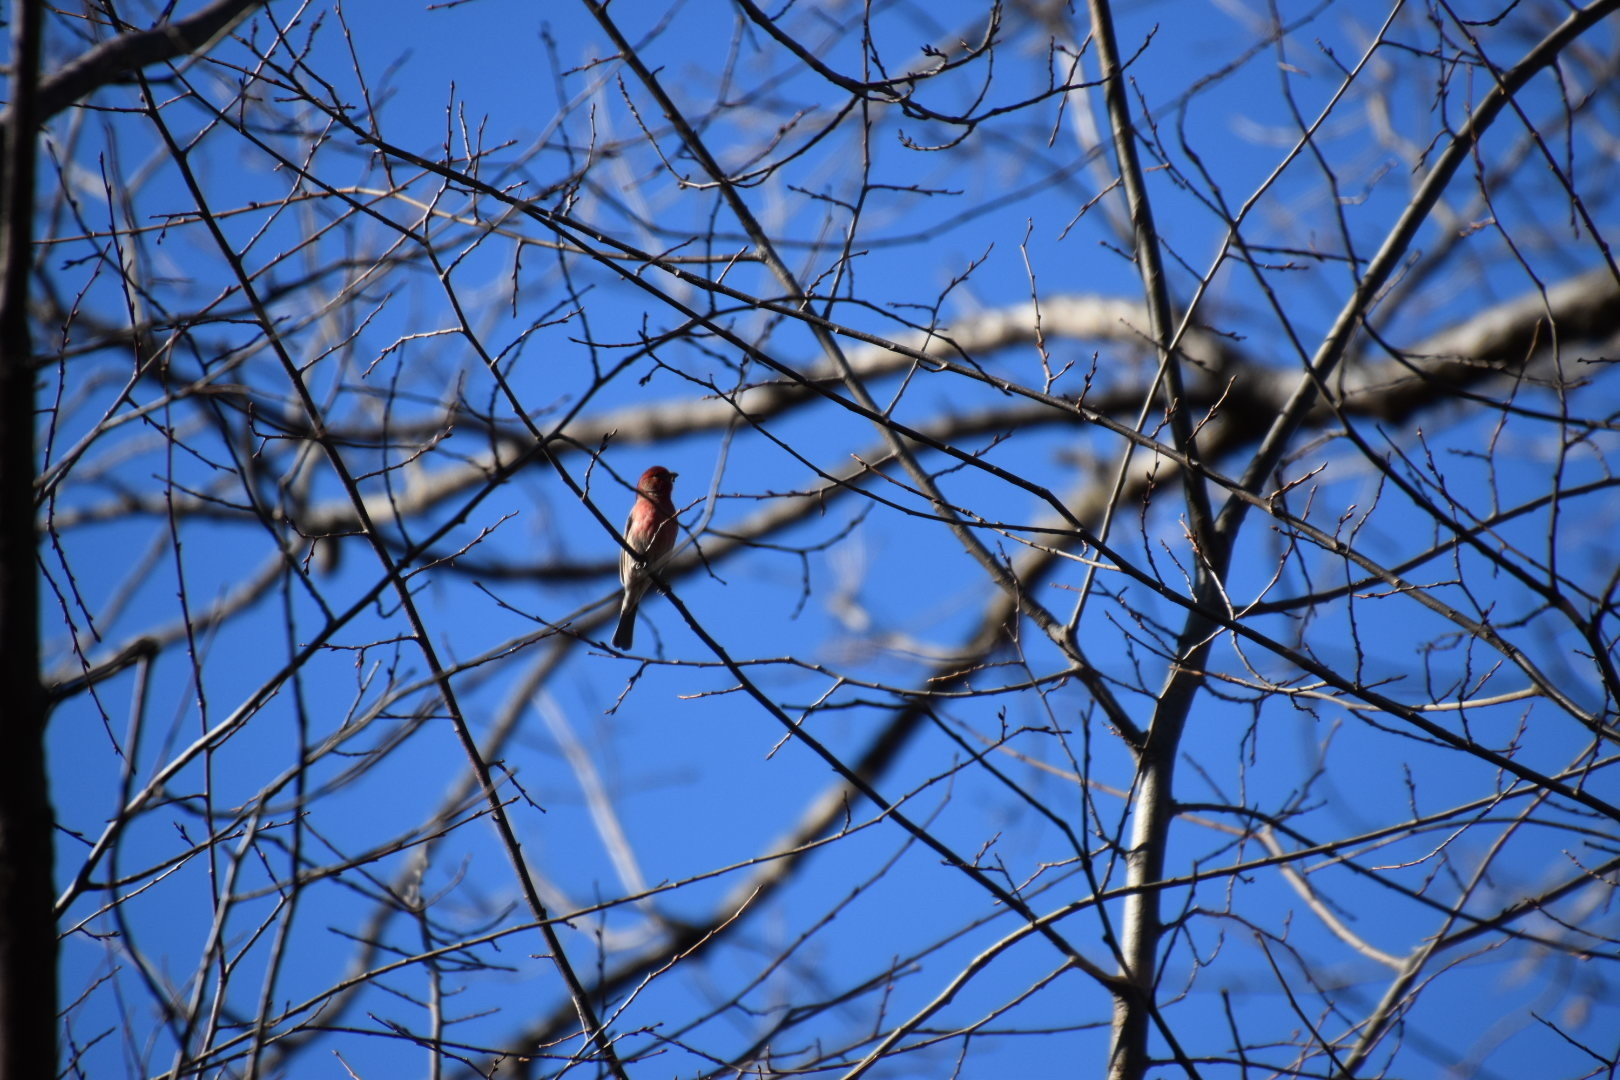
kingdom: Animalia
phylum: Chordata
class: Aves
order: Passeriformes
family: Fringillidae
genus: Haemorhous
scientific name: Haemorhous mexicanus
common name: House finch
